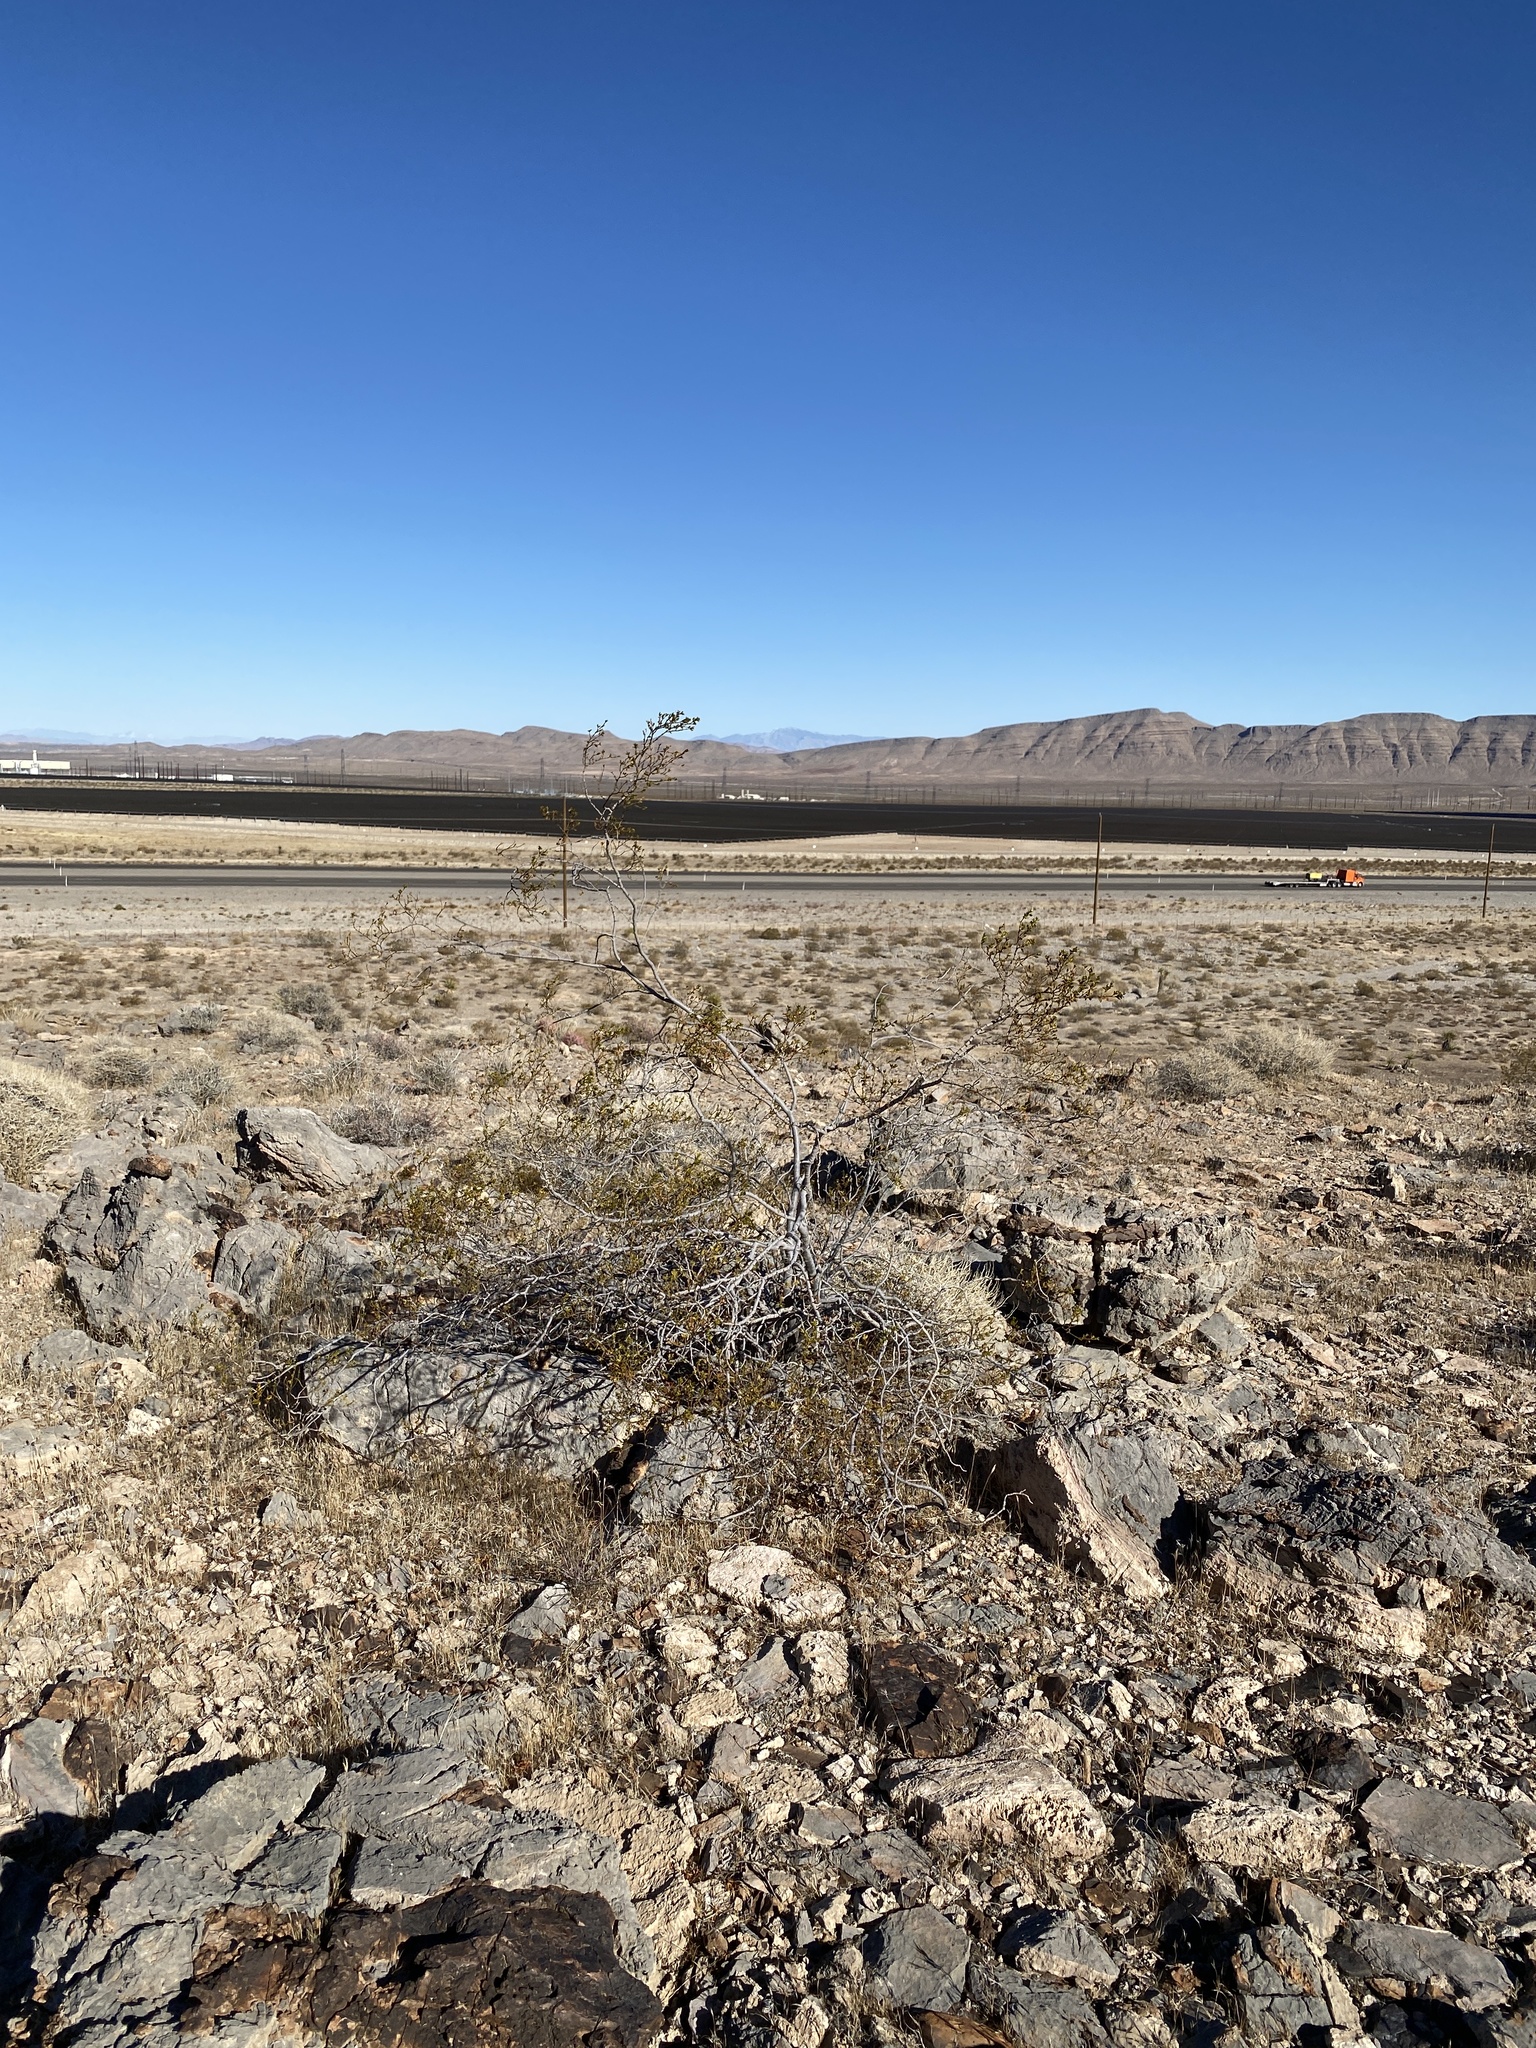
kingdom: Plantae
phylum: Tracheophyta
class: Magnoliopsida
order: Zygophyllales
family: Zygophyllaceae
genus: Larrea
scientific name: Larrea tridentata
